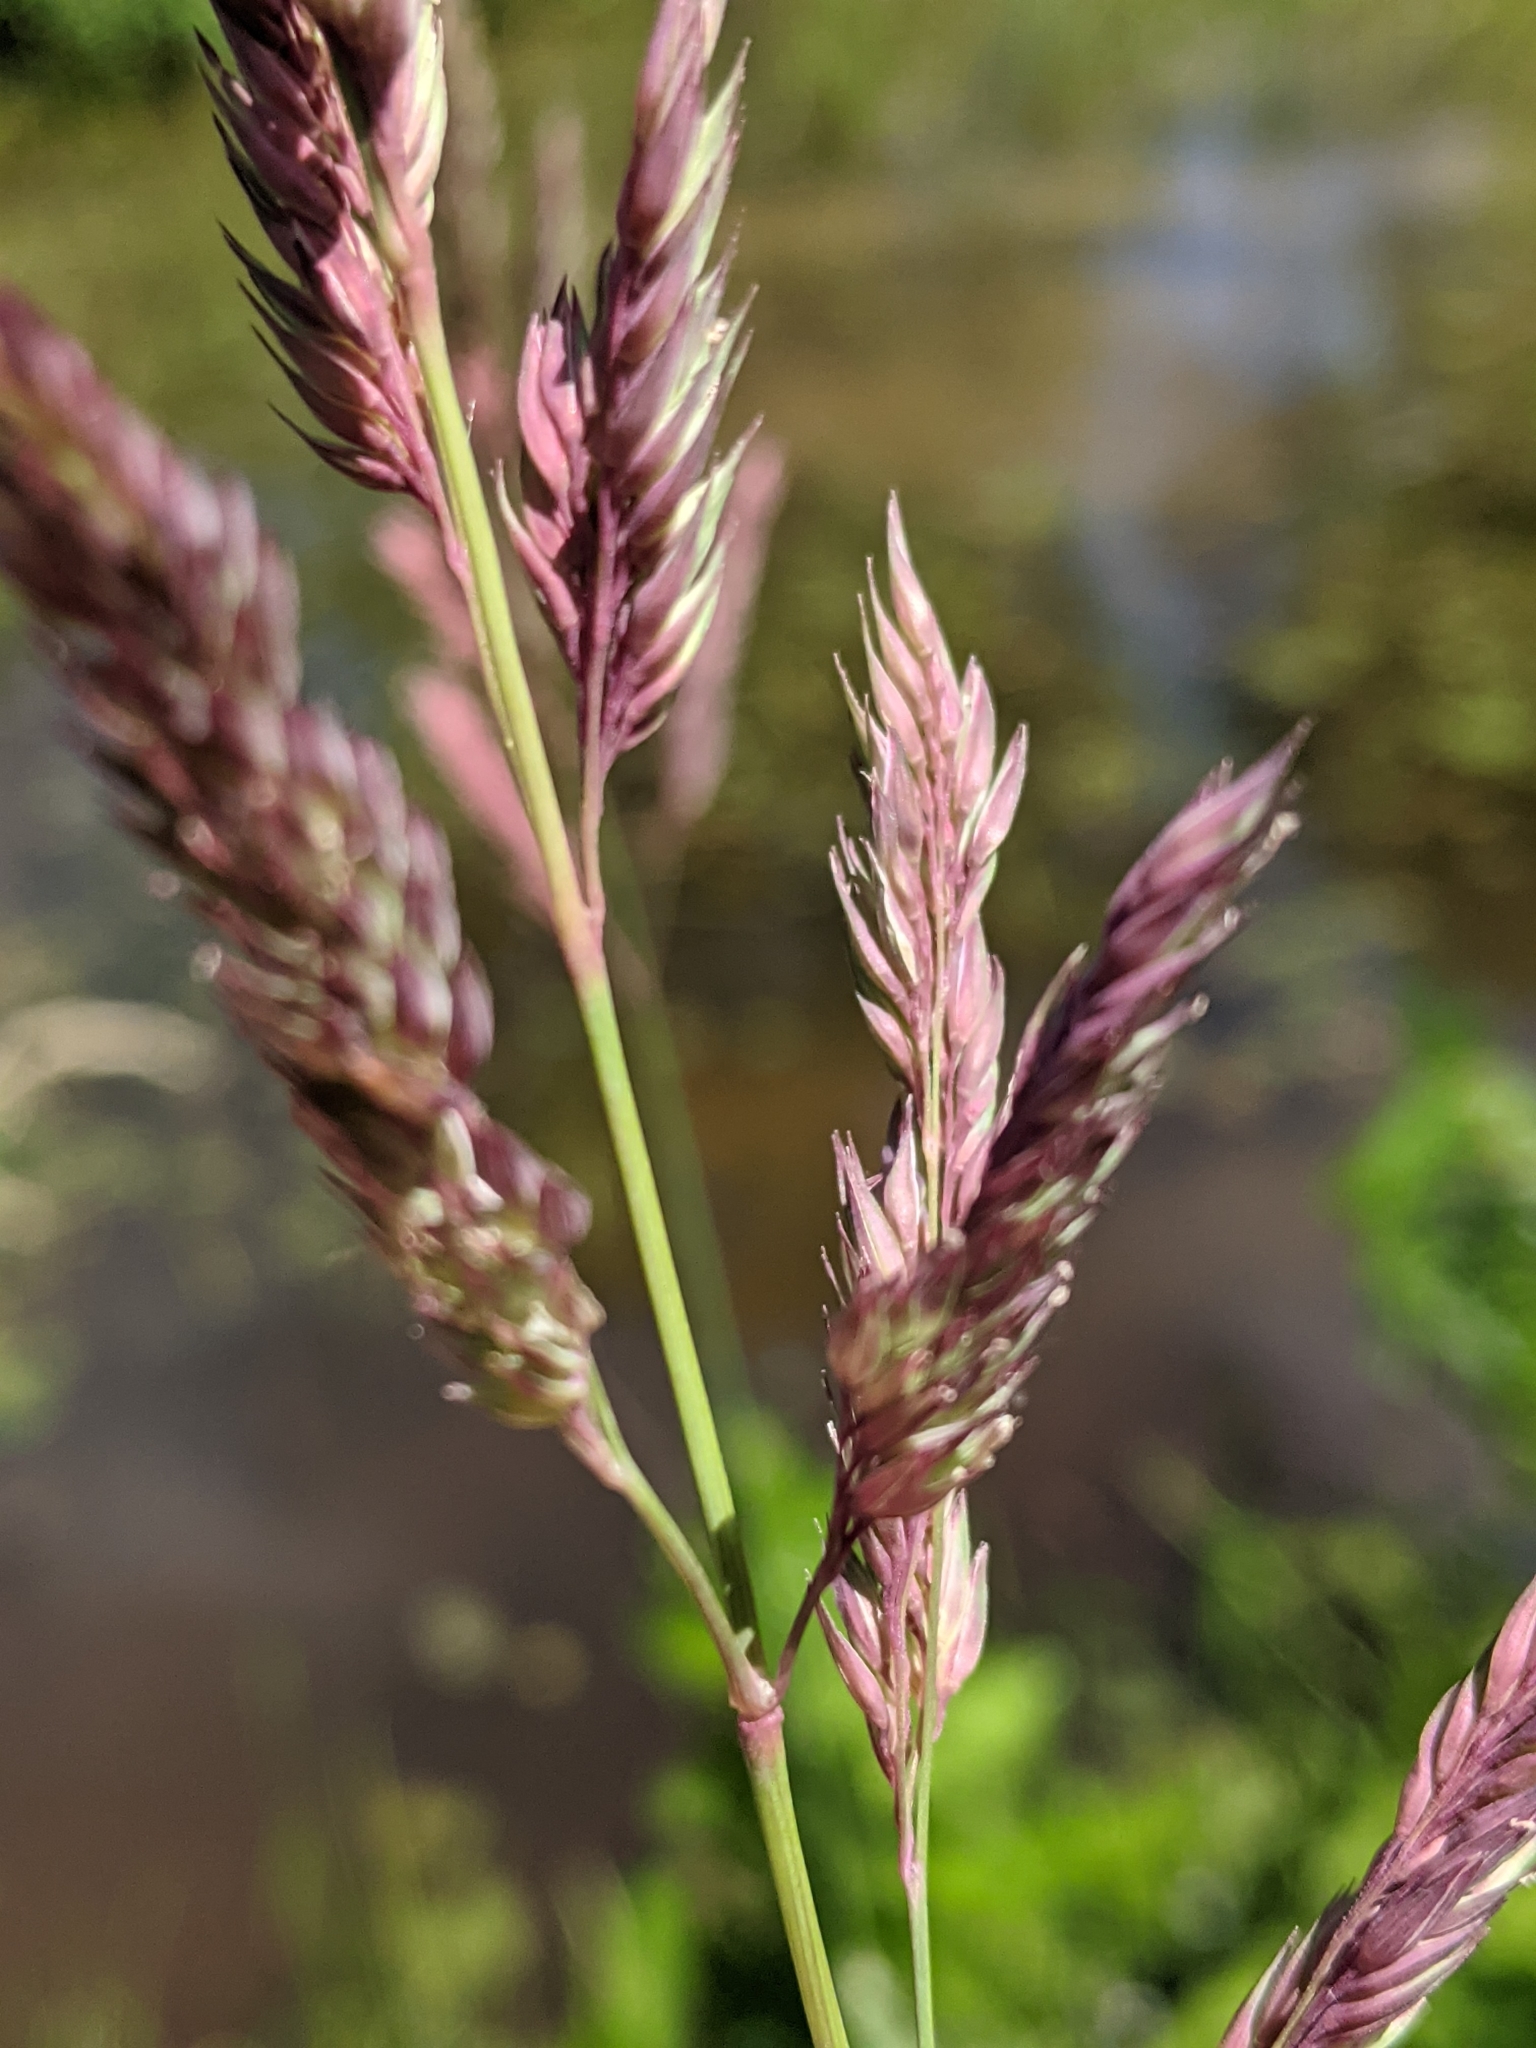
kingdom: Plantae
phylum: Tracheophyta
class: Liliopsida
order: Poales
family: Poaceae
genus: Phalaris
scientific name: Phalaris arundinacea
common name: Reed canary-grass
